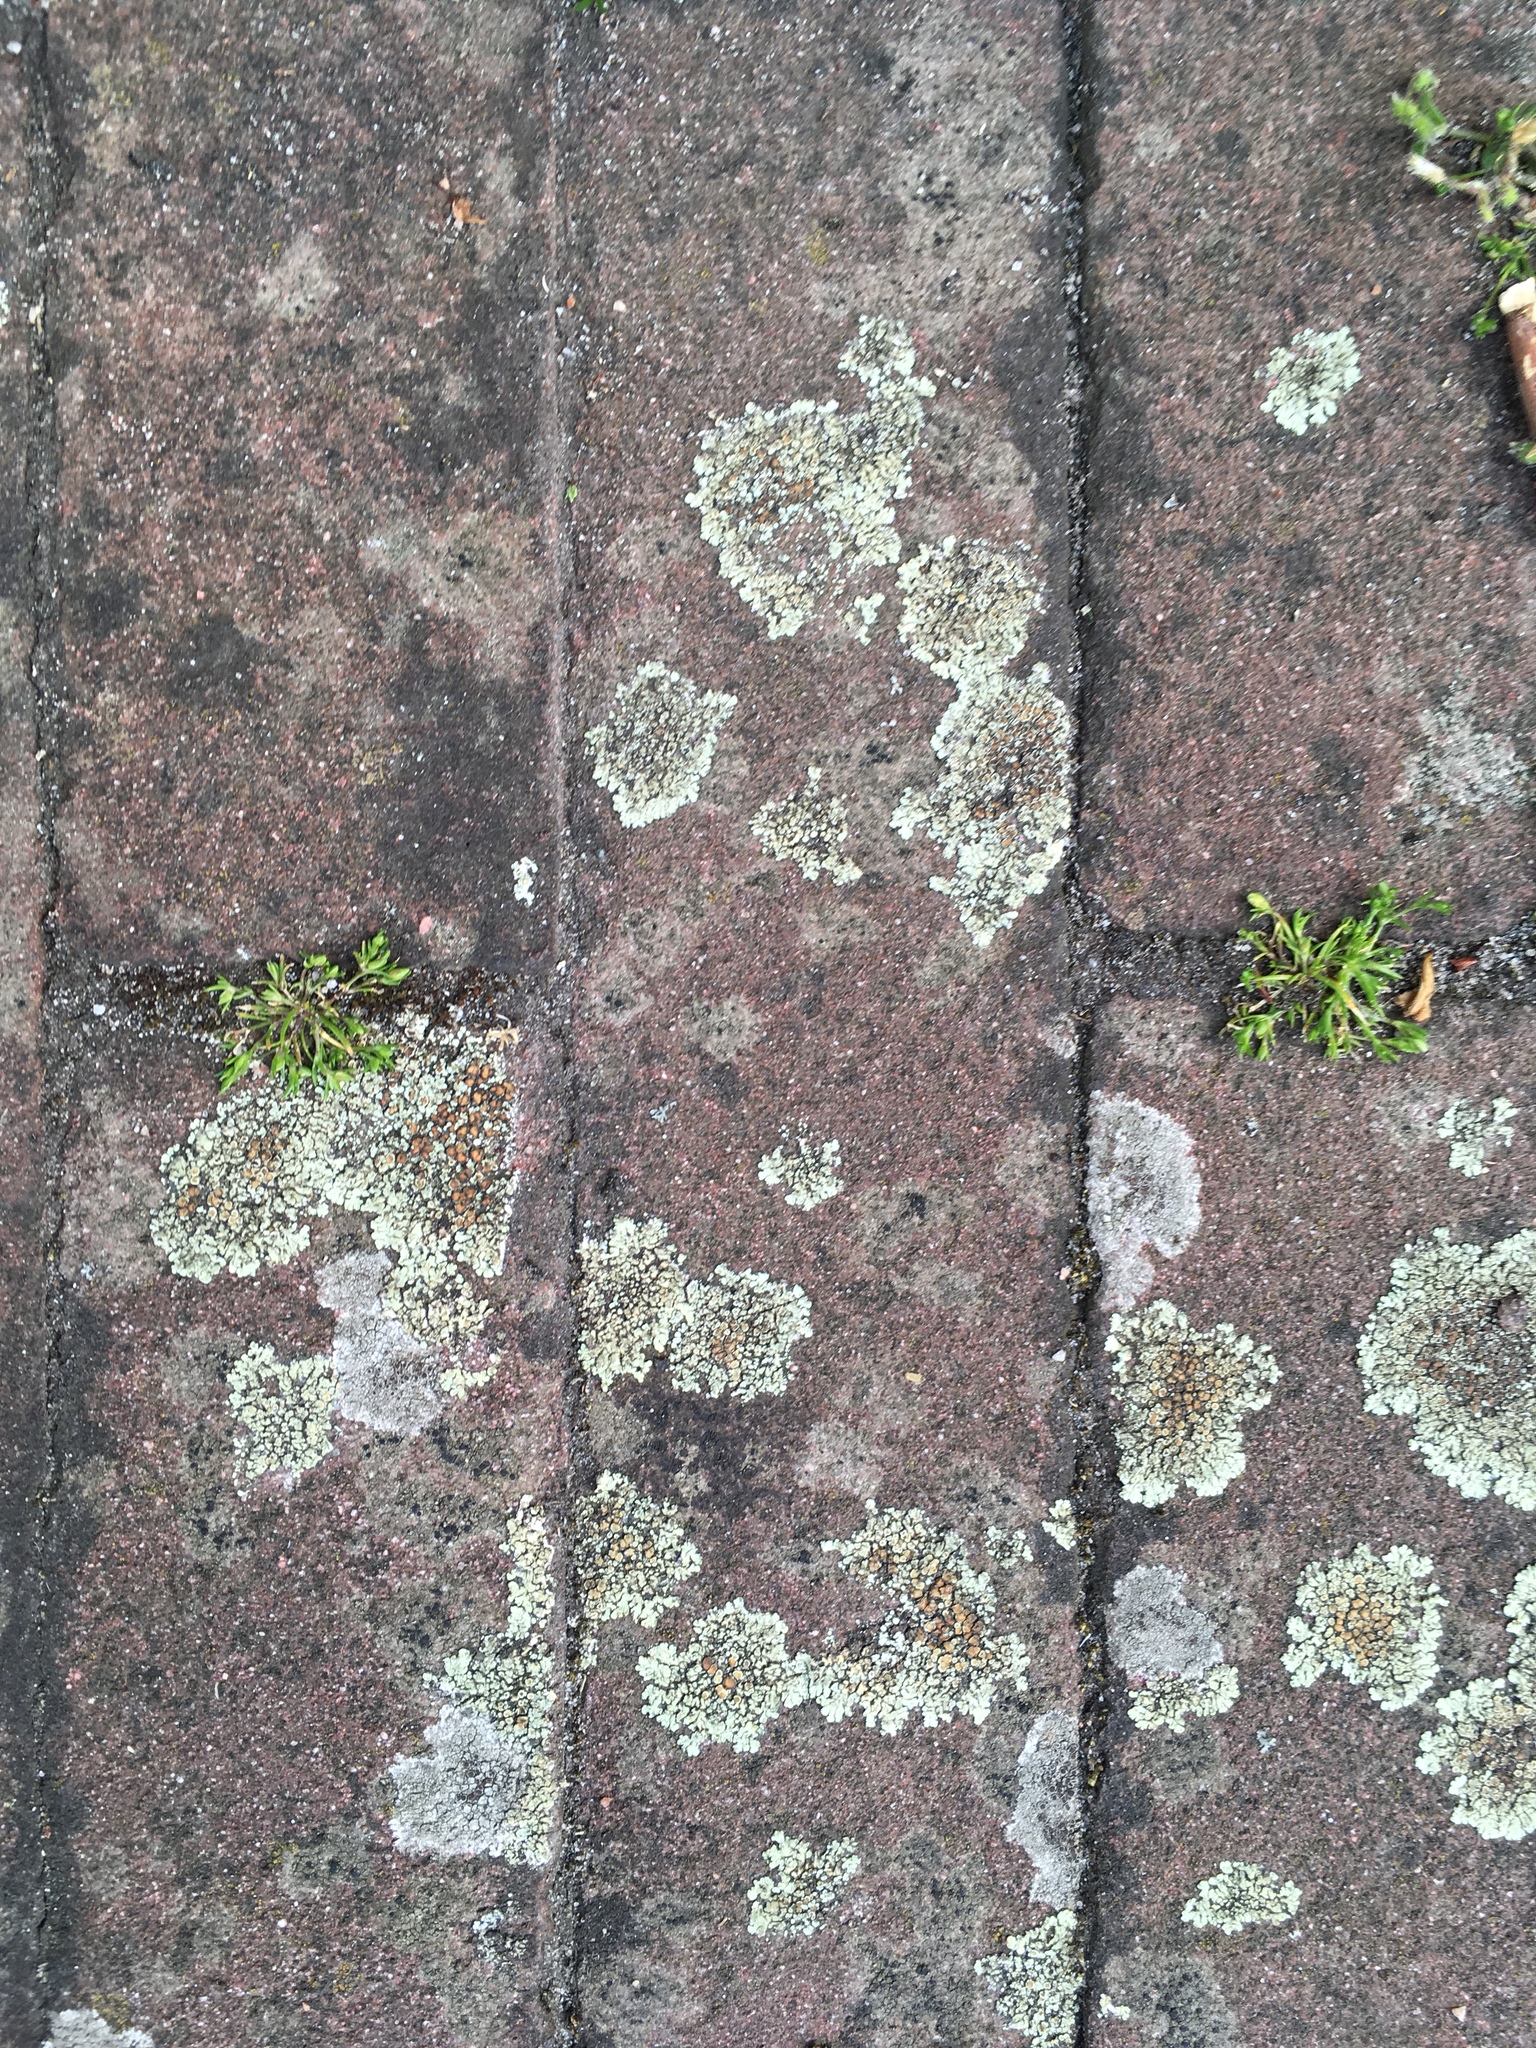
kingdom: Fungi
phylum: Ascomycota
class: Lecanoromycetes
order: Lecanorales
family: Lecanoraceae
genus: Protoparmeliopsis
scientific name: Protoparmeliopsis muralis
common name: Stonewall rim lichen
